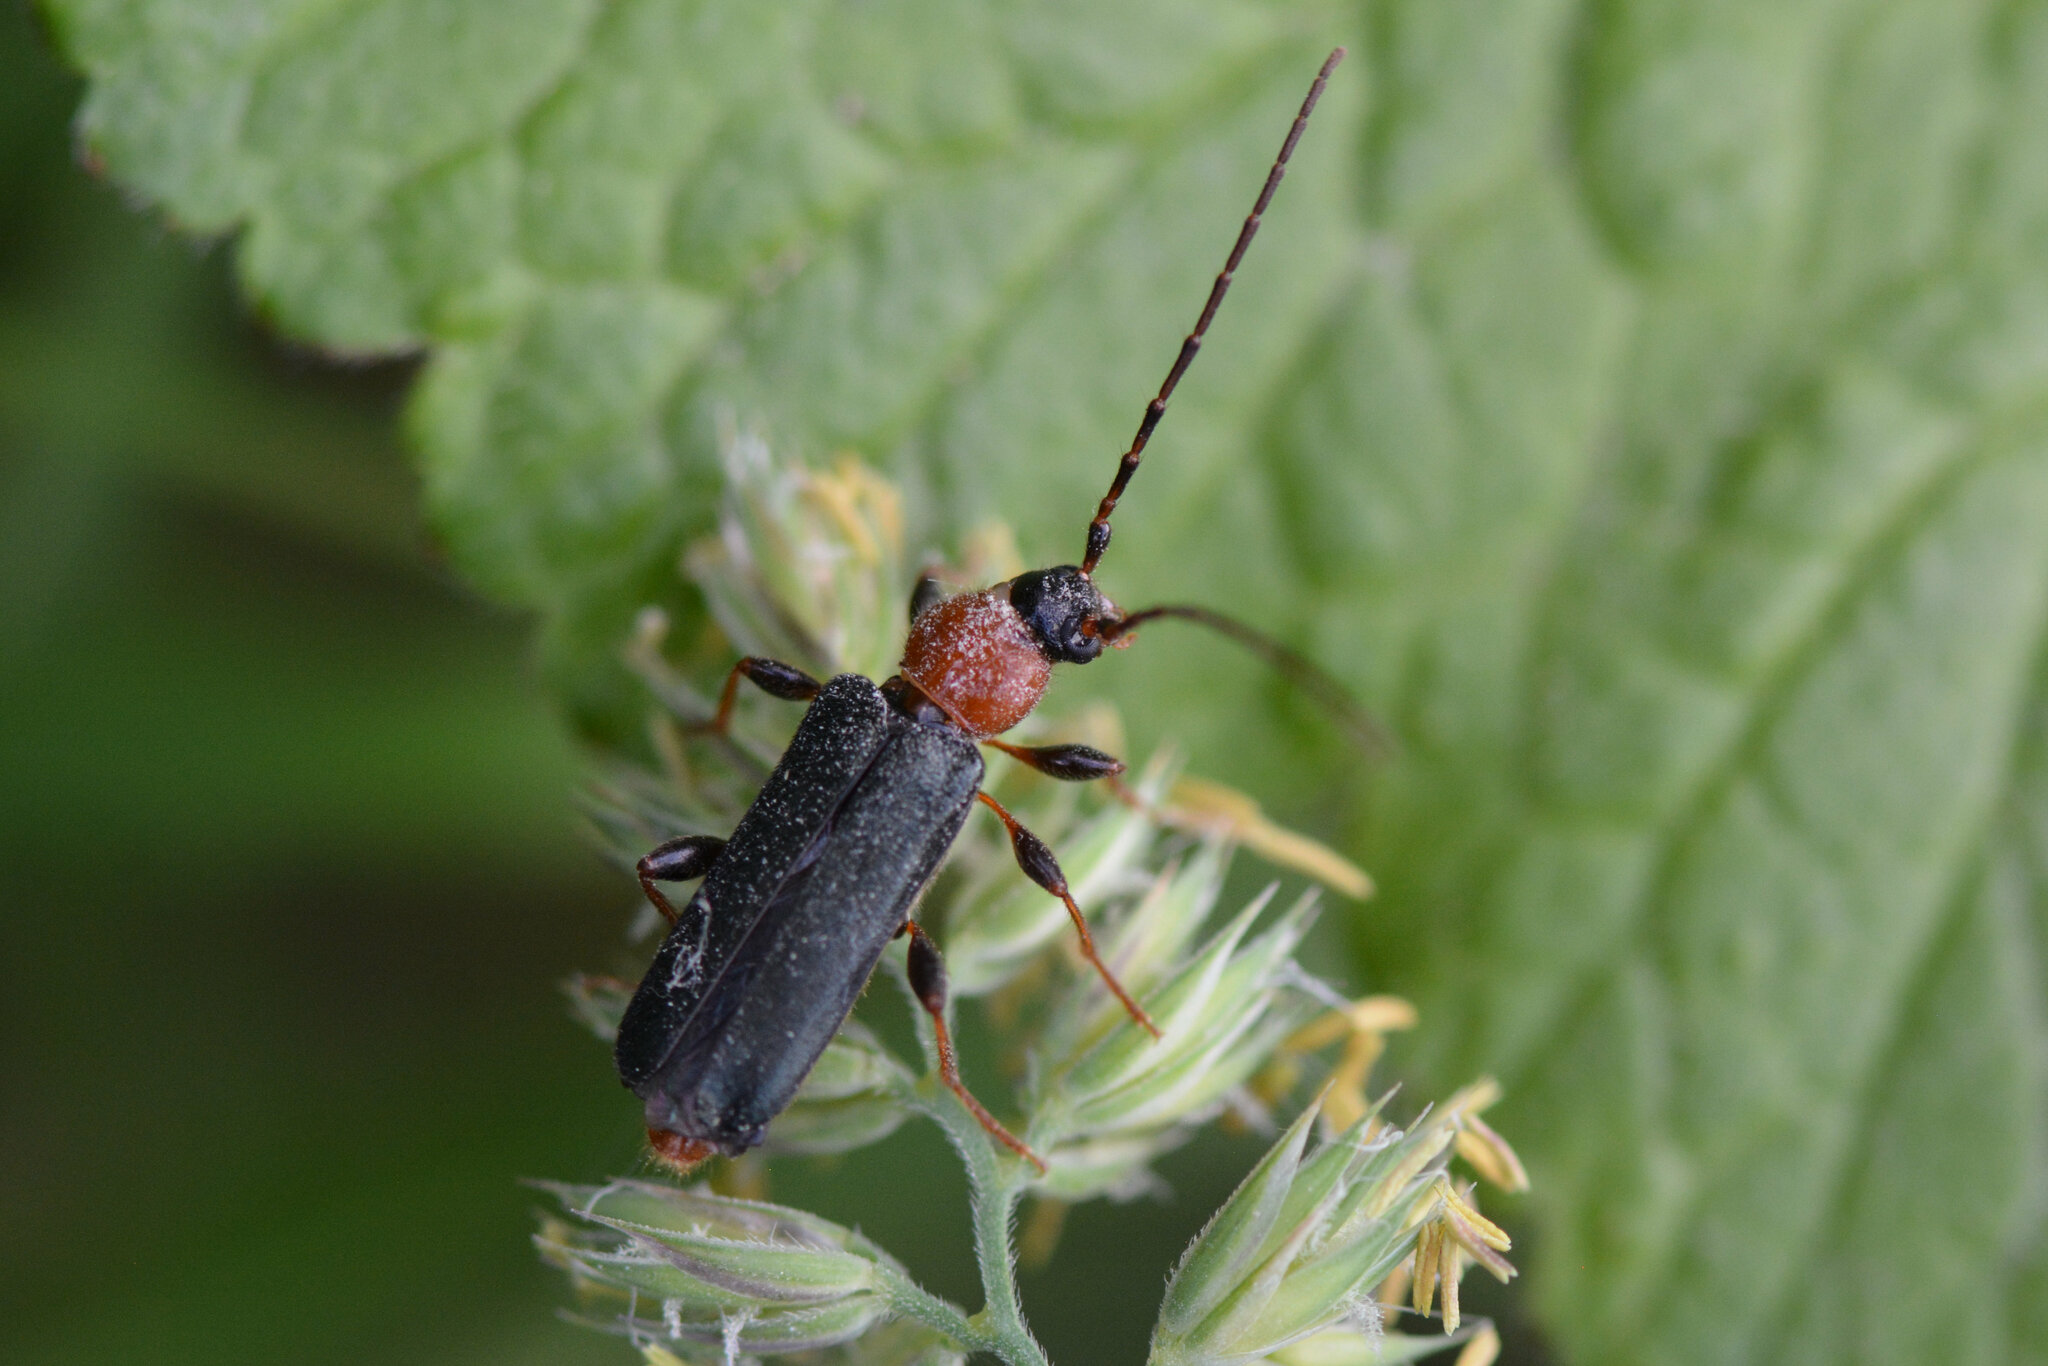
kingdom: Animalia
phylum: Arthropoda
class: Insecta
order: Coleoptera
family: Cerambycidae
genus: Phymatodes
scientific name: Phymatodes testaceus
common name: Long-horned beetle
